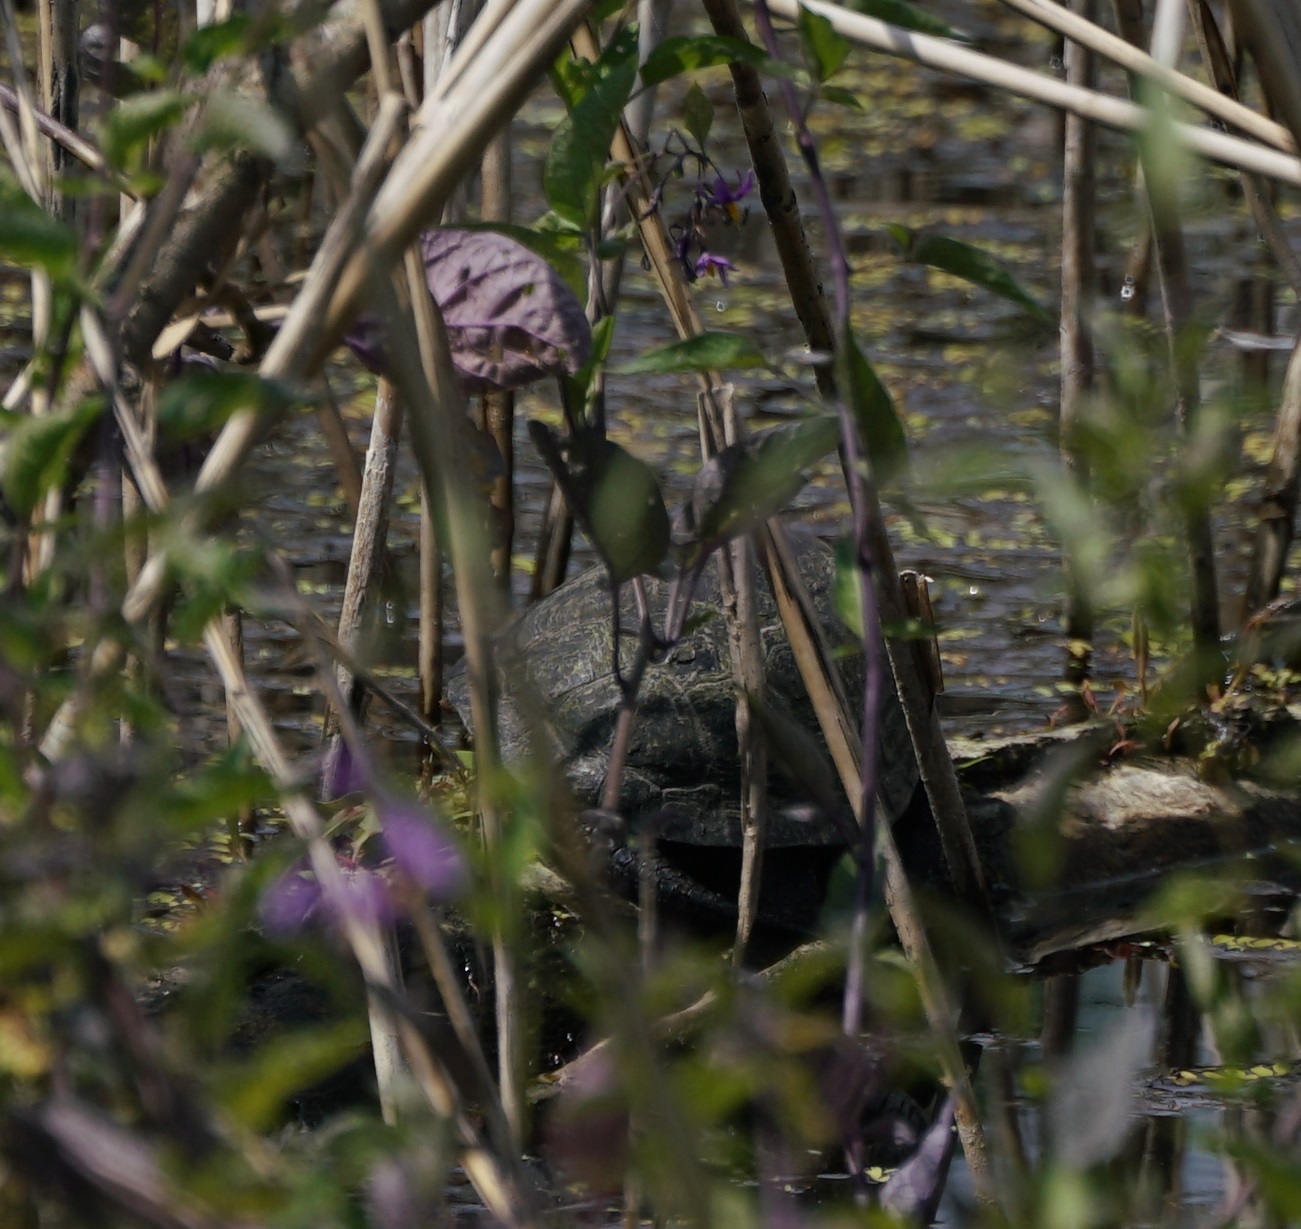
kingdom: Animalia
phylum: Chordata
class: Testudines
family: Emydidae
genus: Emys
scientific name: Emys orbicularis
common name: European pond turtle
